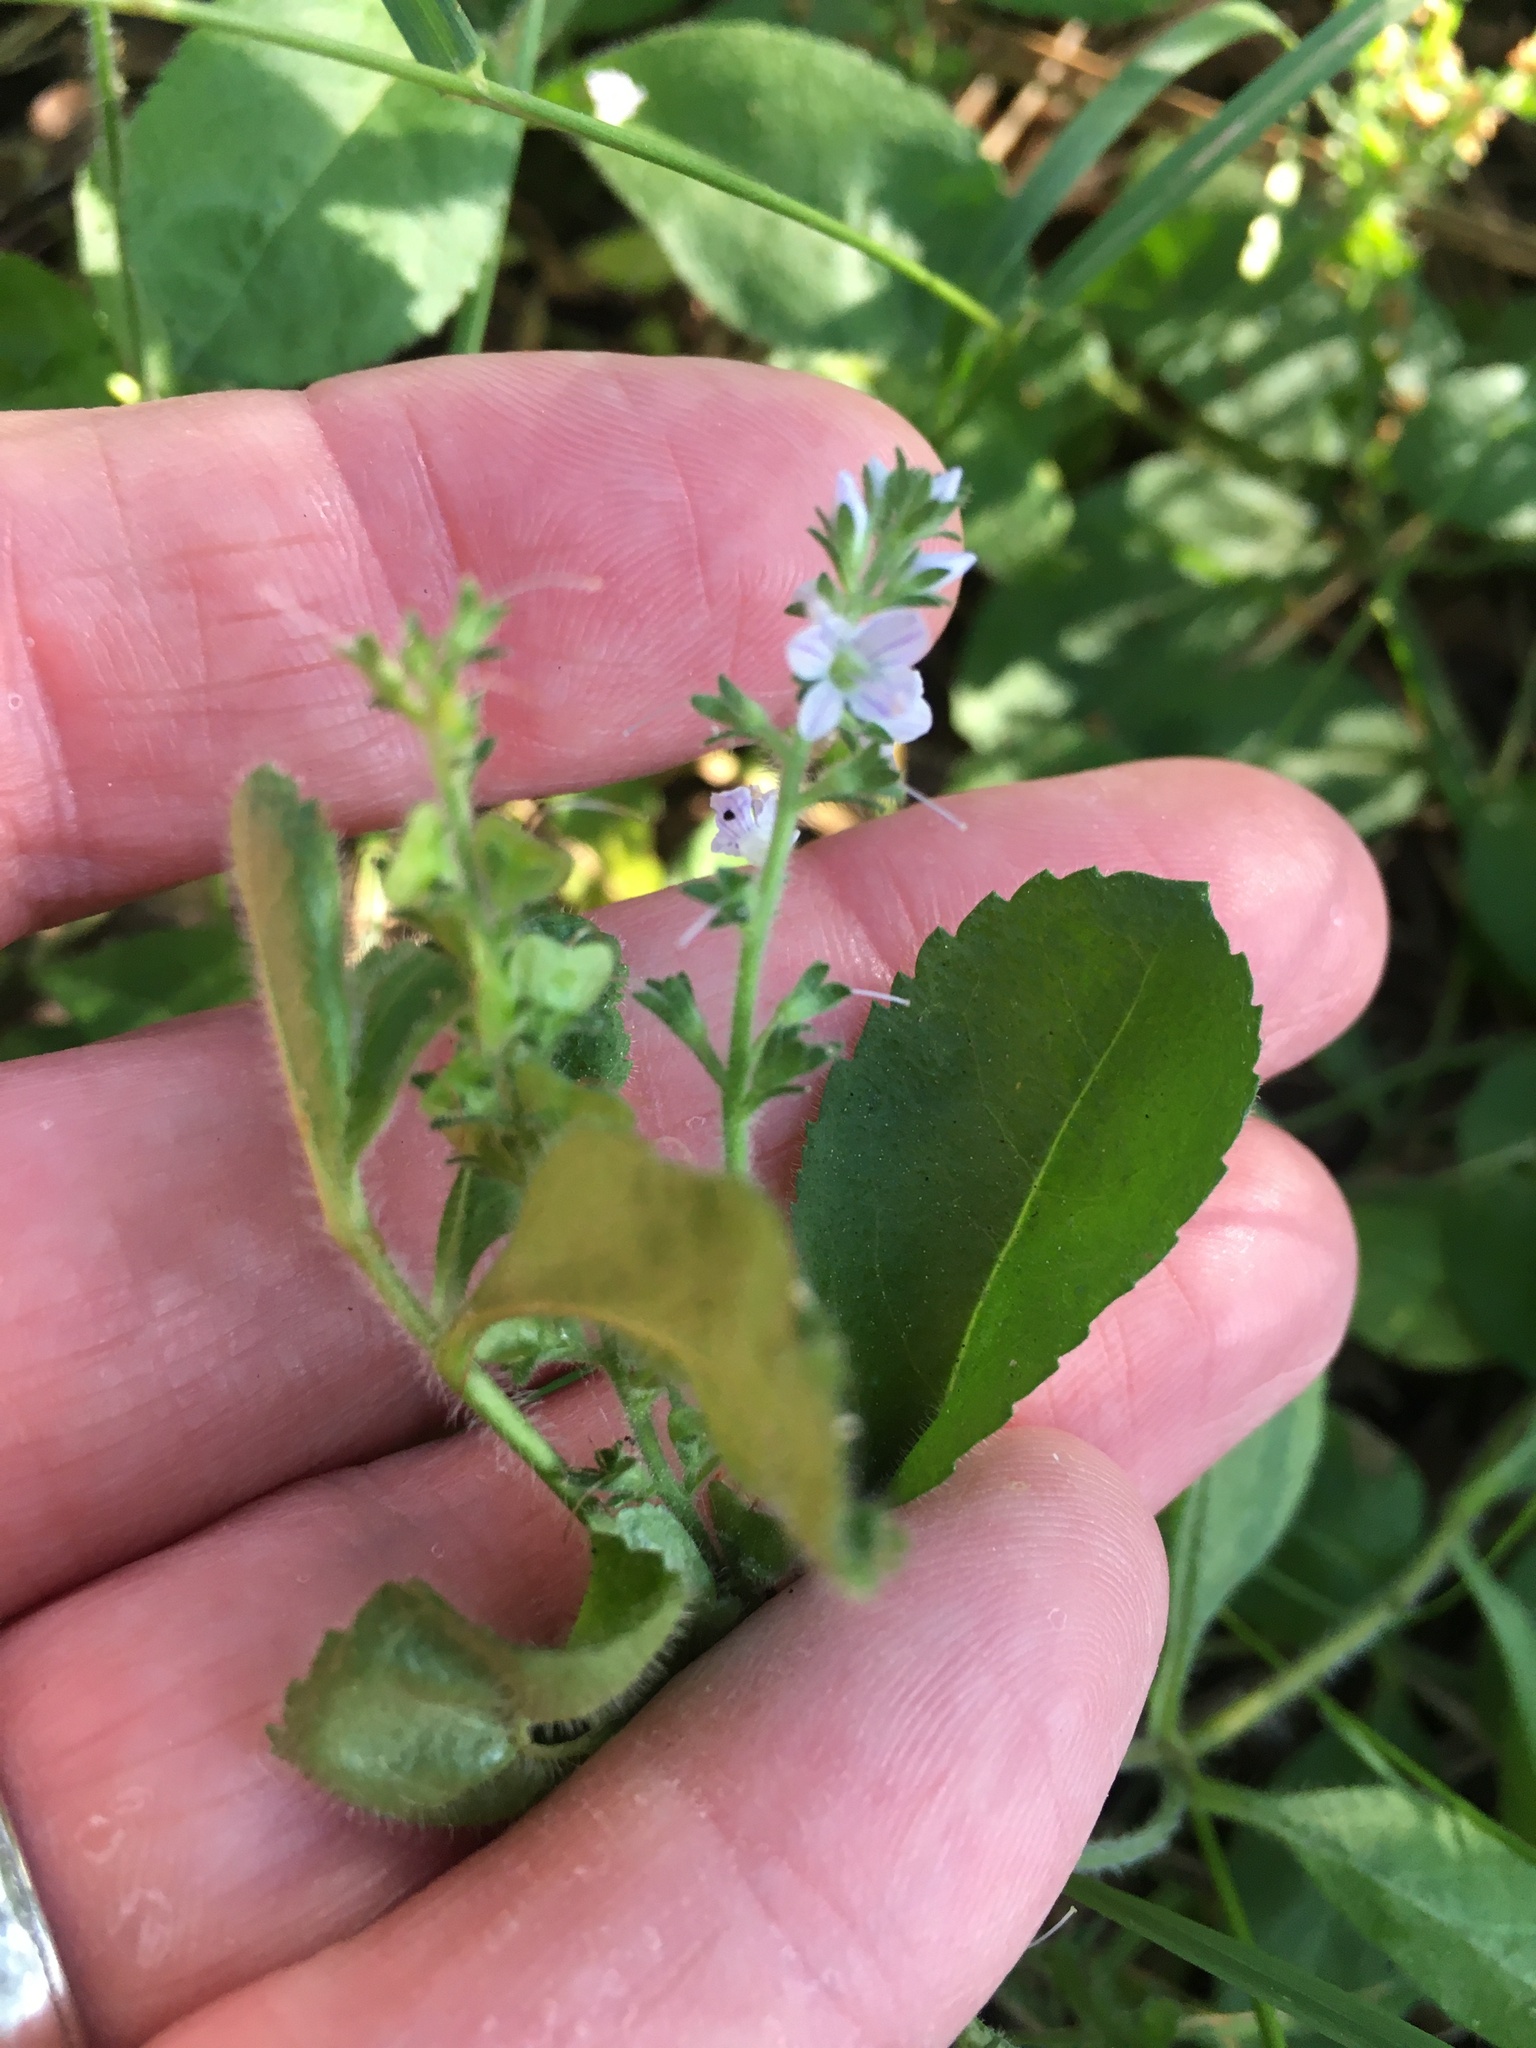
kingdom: Plantae
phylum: Tracheophyta
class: Magnoliopsida
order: Lamiales
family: Plantaginaceae
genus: Veronica
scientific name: Veronica officinalis
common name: Common speedwell
